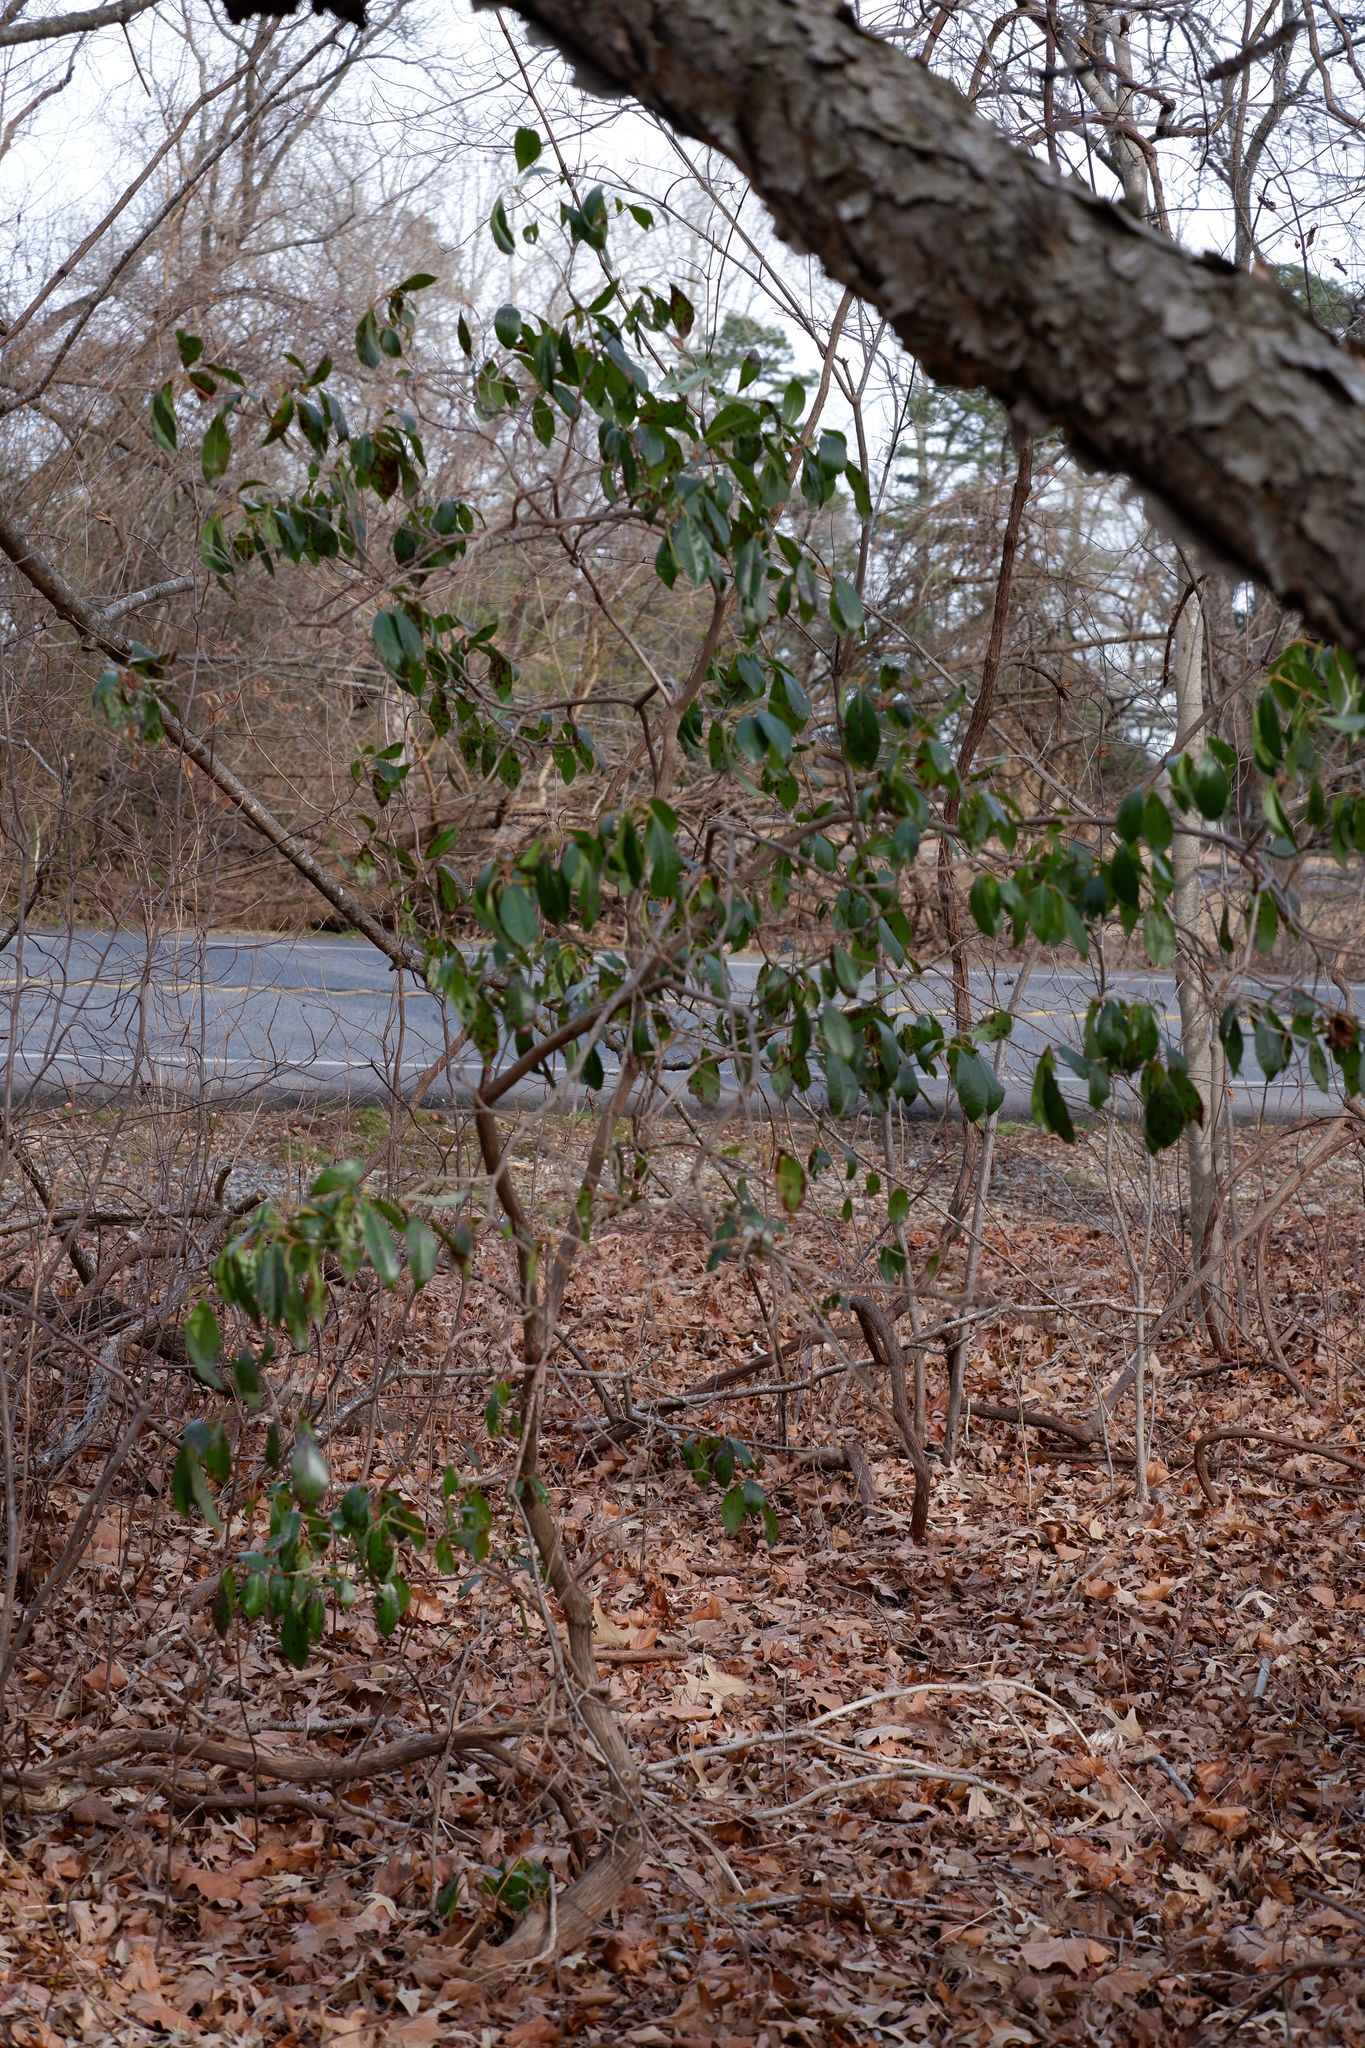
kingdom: Plantae
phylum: Tracheophyta
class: Magnoliopsida
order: Ericales
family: Ericaceae
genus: Kalmia
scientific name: Kalmia latifolia
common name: Mountain-laurel
